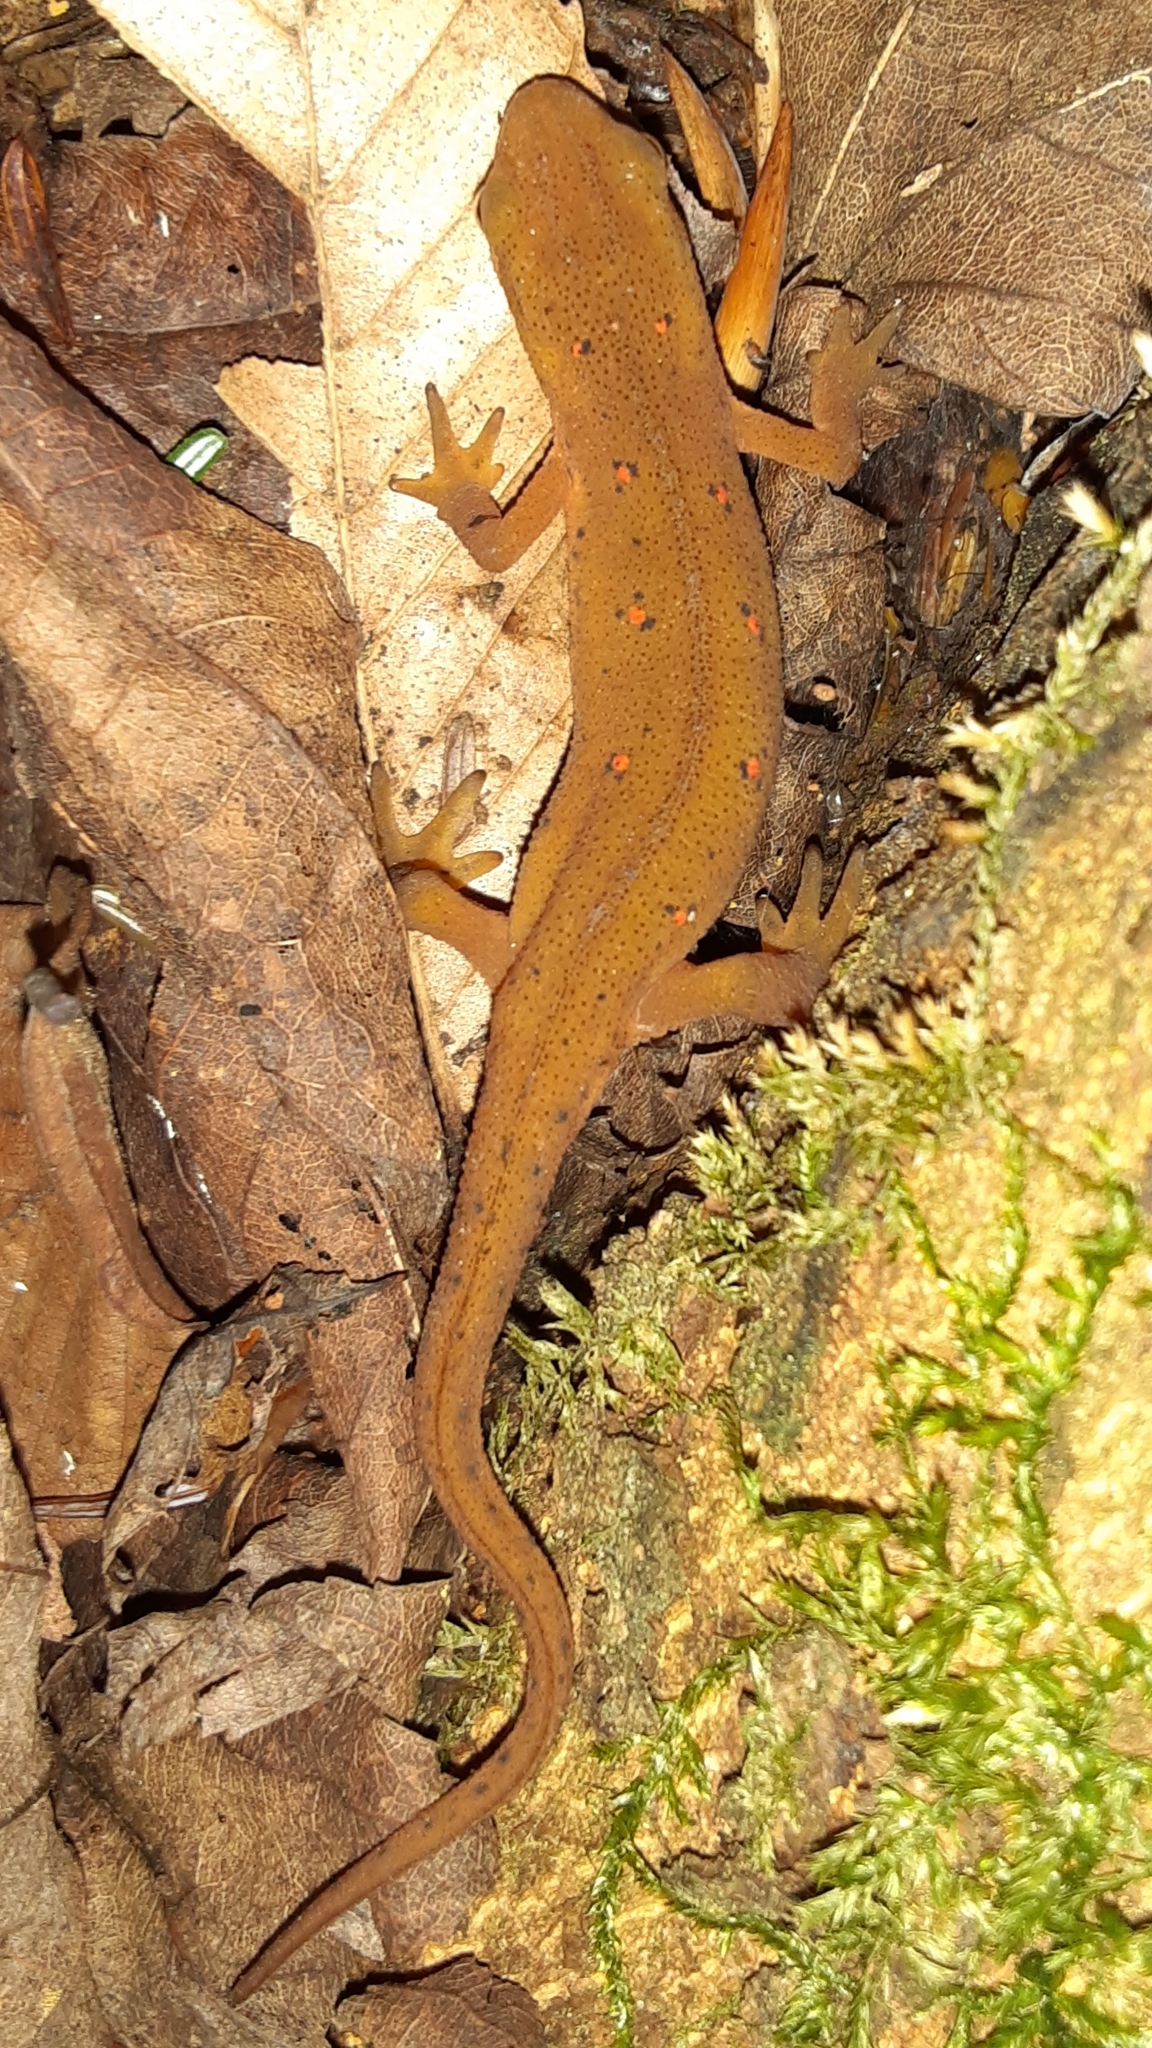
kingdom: Animalia
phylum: Chordata
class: Amphibia
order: Caudata
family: Salamandridae
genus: Notophthalmus
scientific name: Notophthalmus viridescens
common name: Eastern newt
